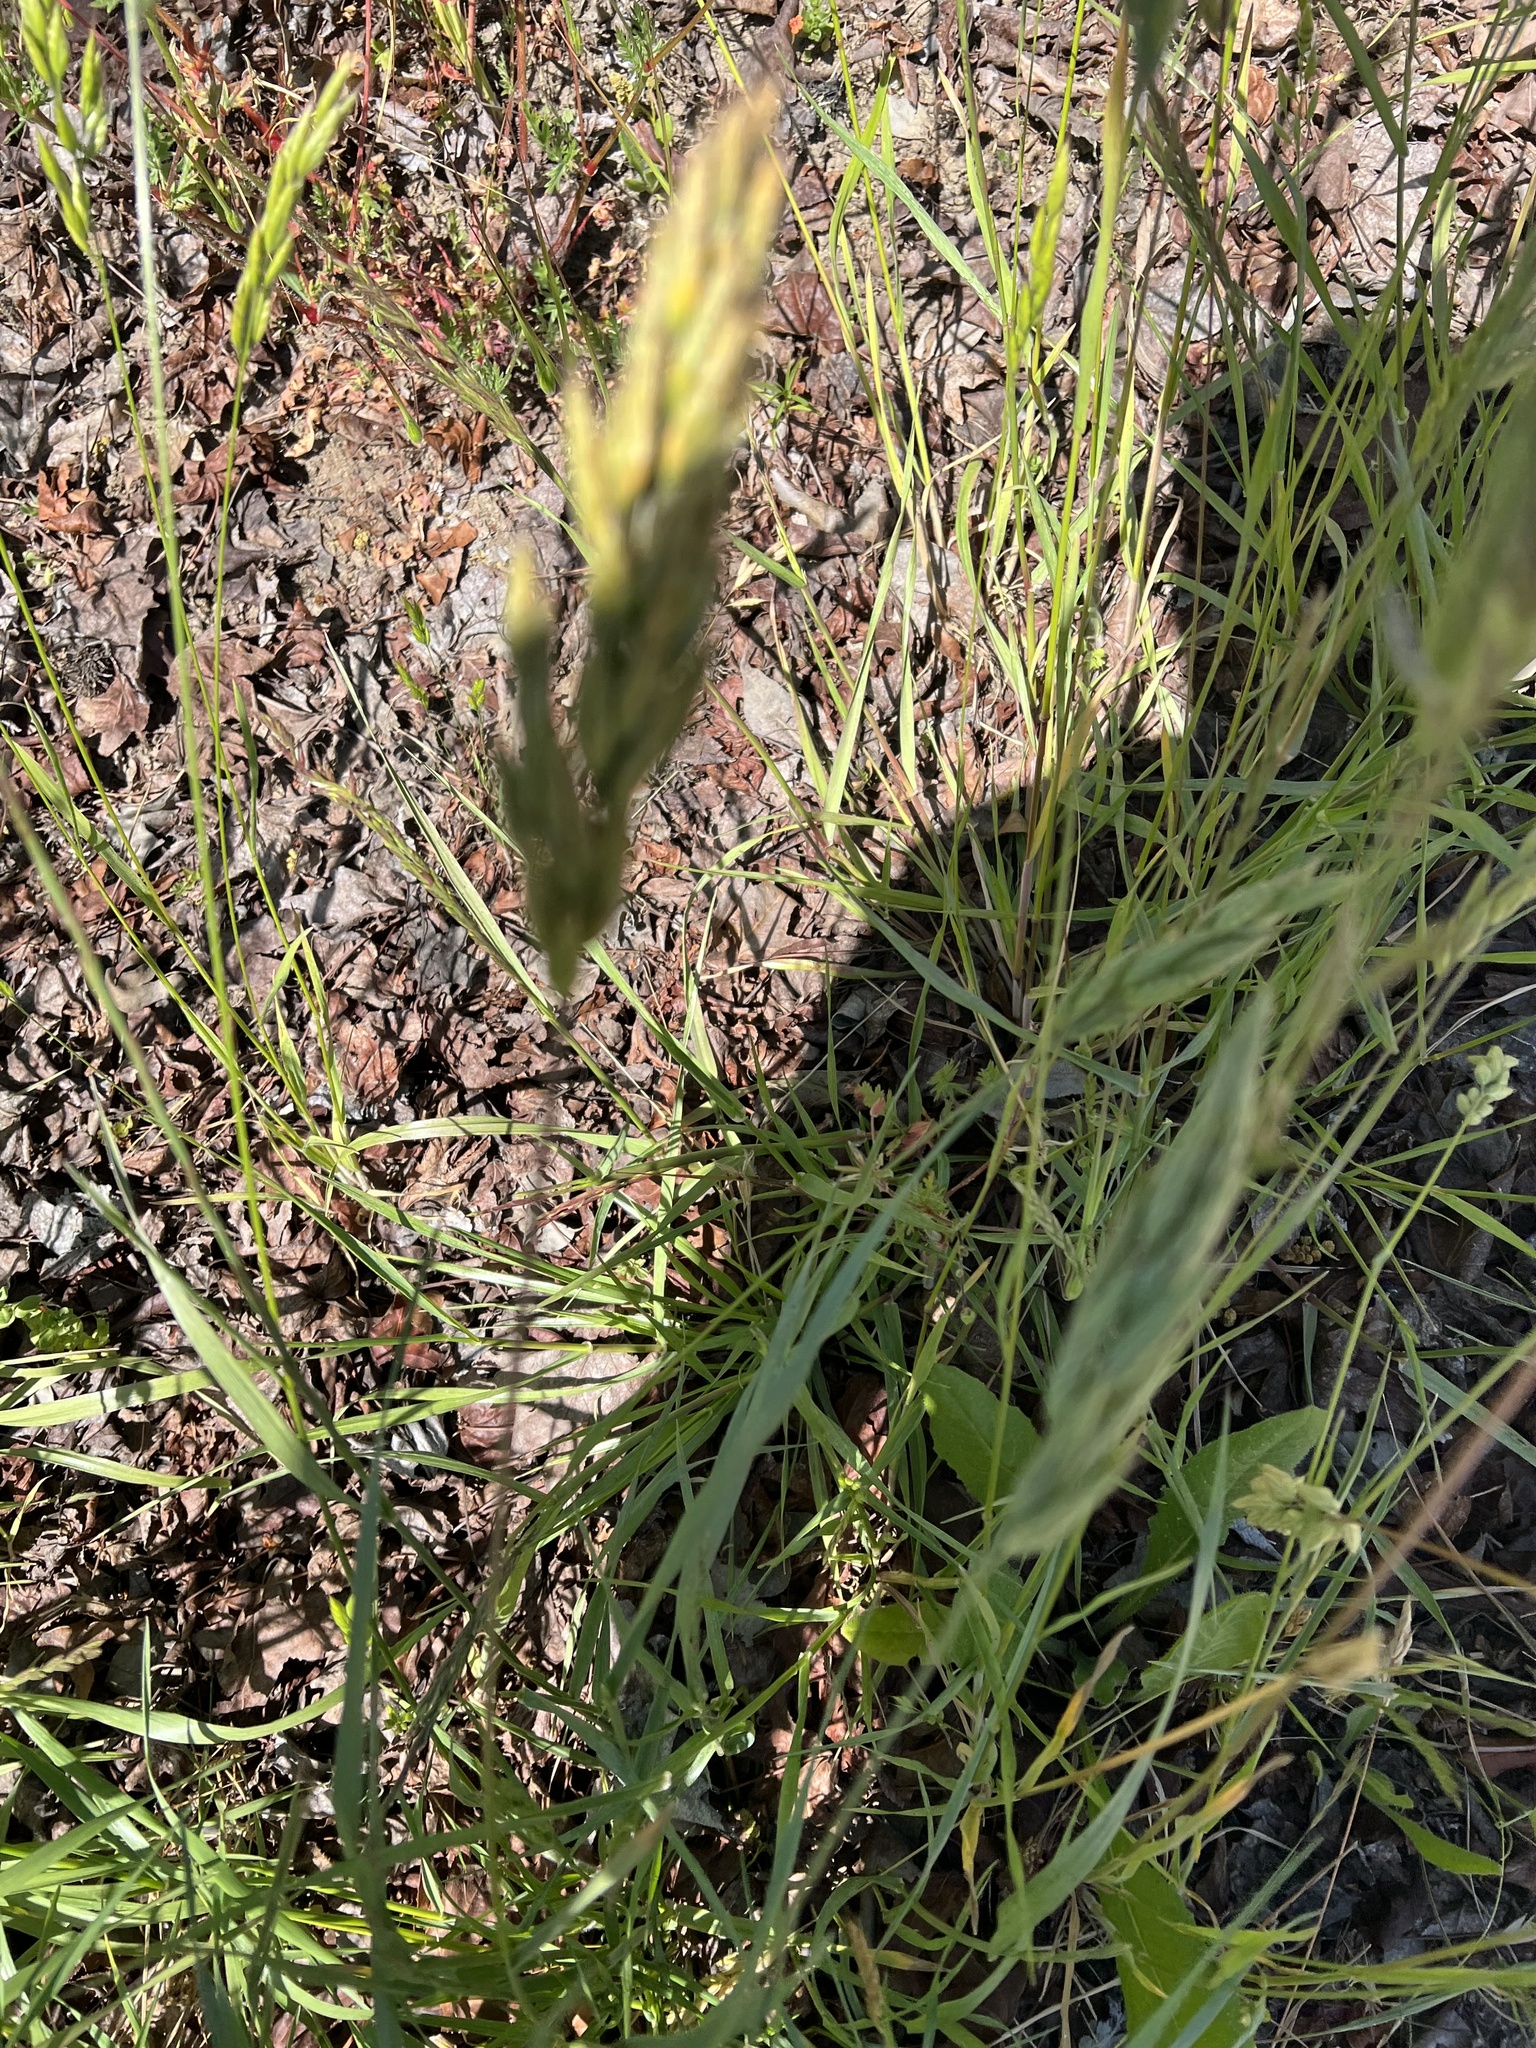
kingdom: Plantae
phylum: Tracheophyta
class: Liliopsida
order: Poales
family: Poaceae
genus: Bromus
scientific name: Bromus hordeaceus
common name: Soft brome
